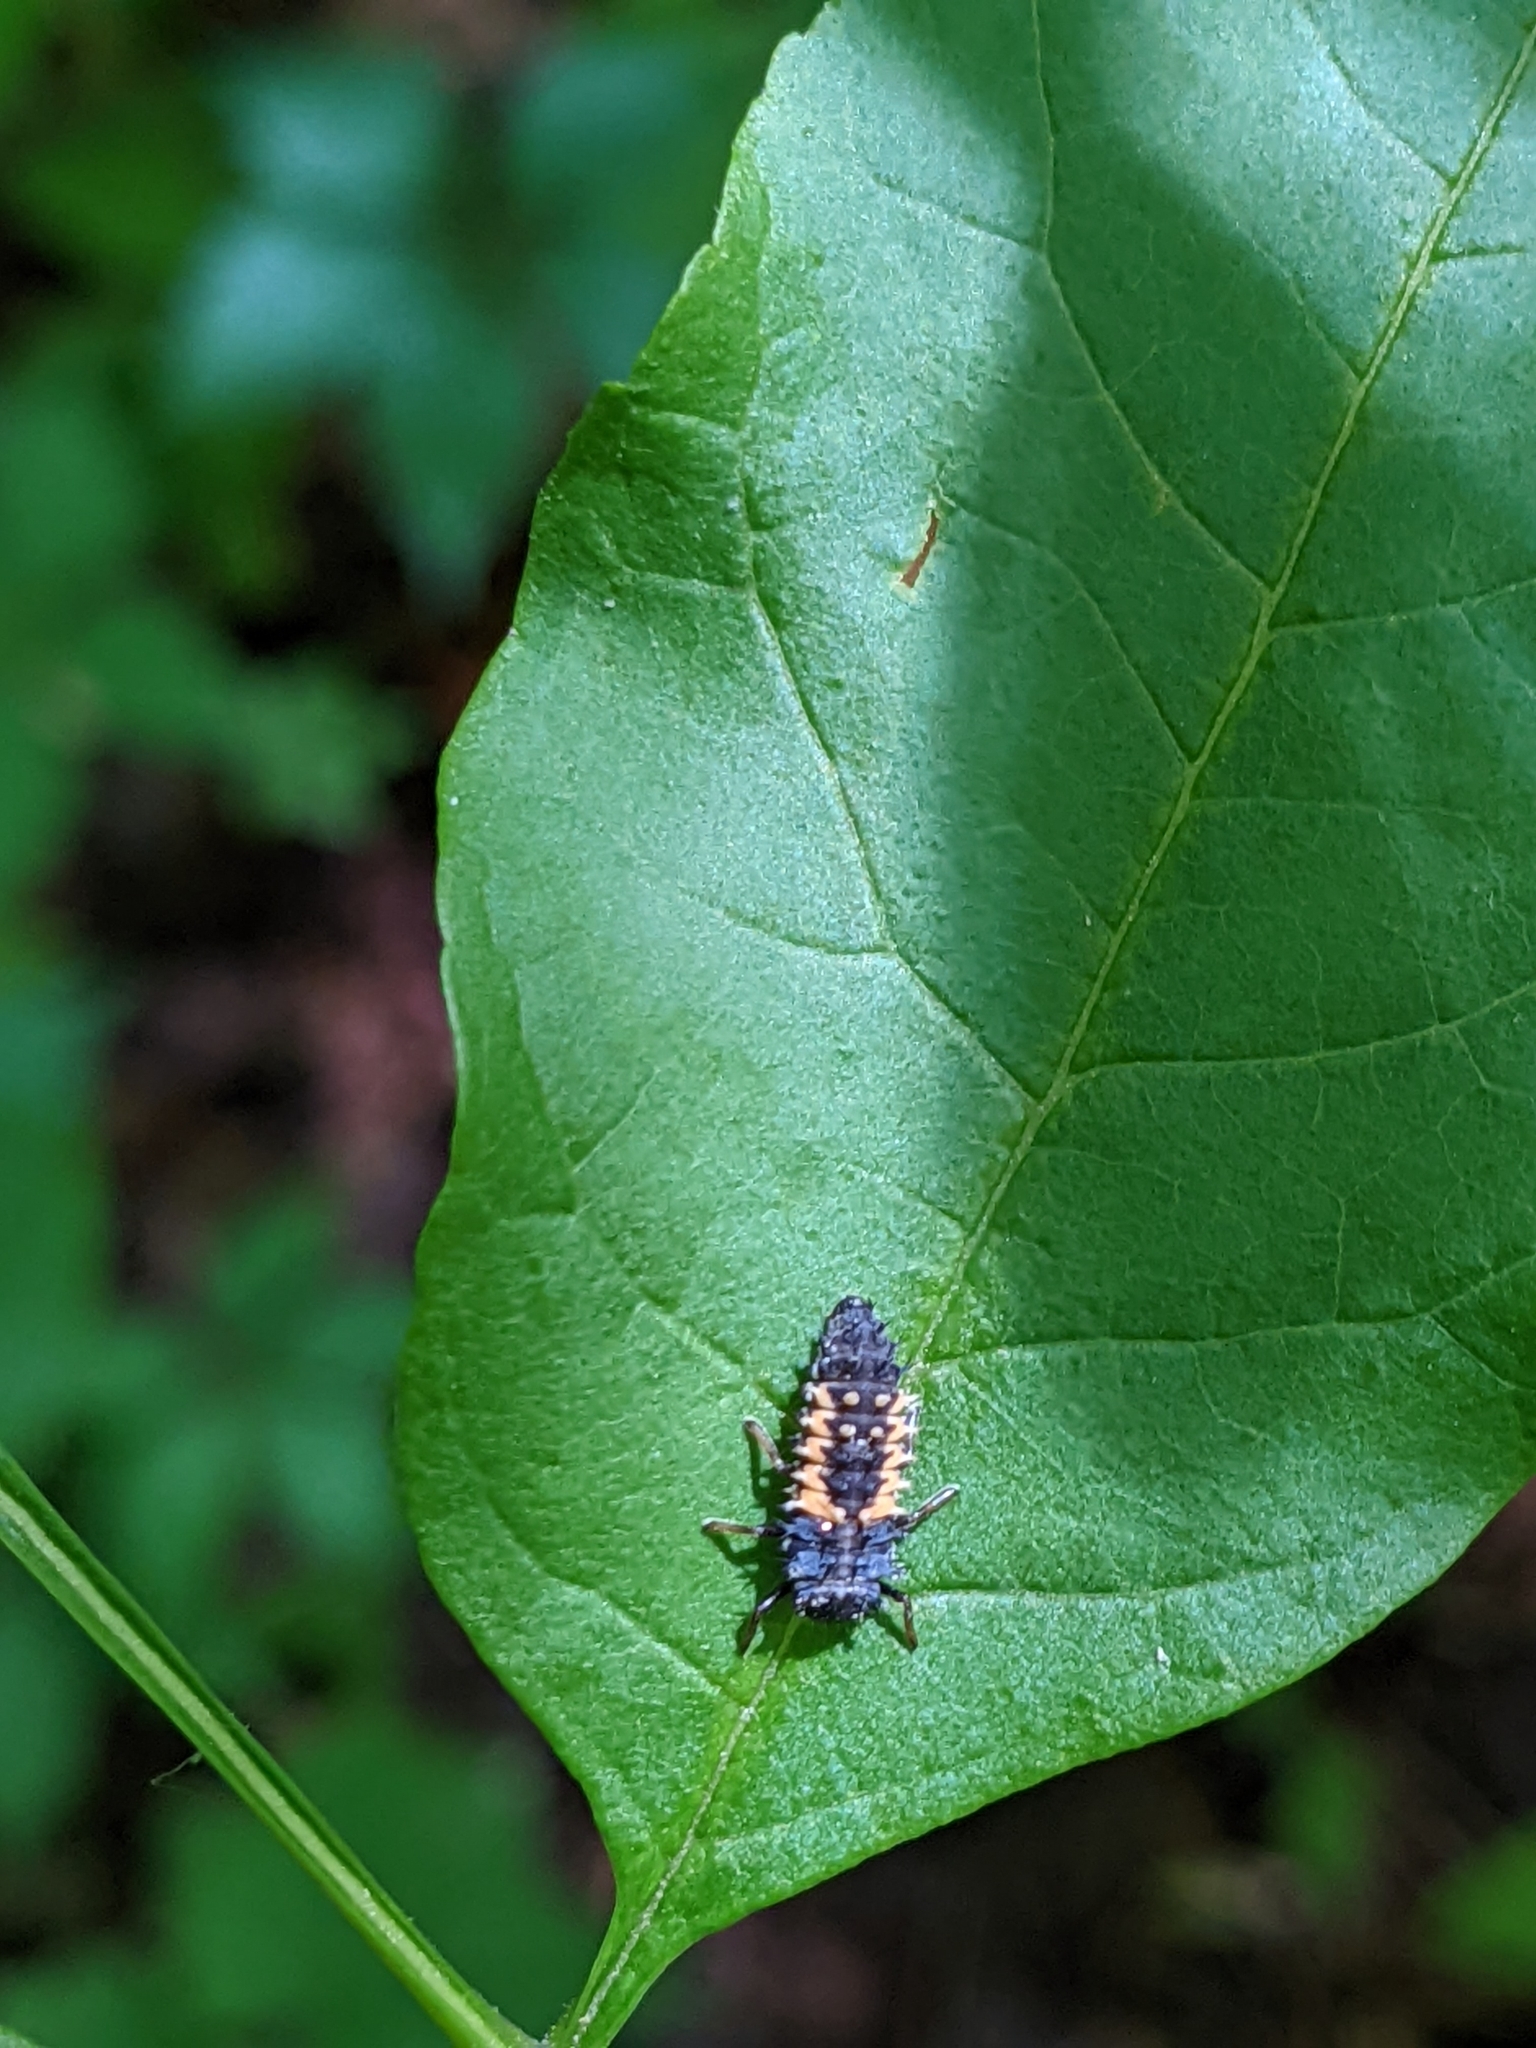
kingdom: Animalia
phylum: Arthropoda
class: Insecta
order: Coleoptera
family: Coccinellidae
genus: Harmonia
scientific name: Harmonia axyridis
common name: Harlequin ladybird
